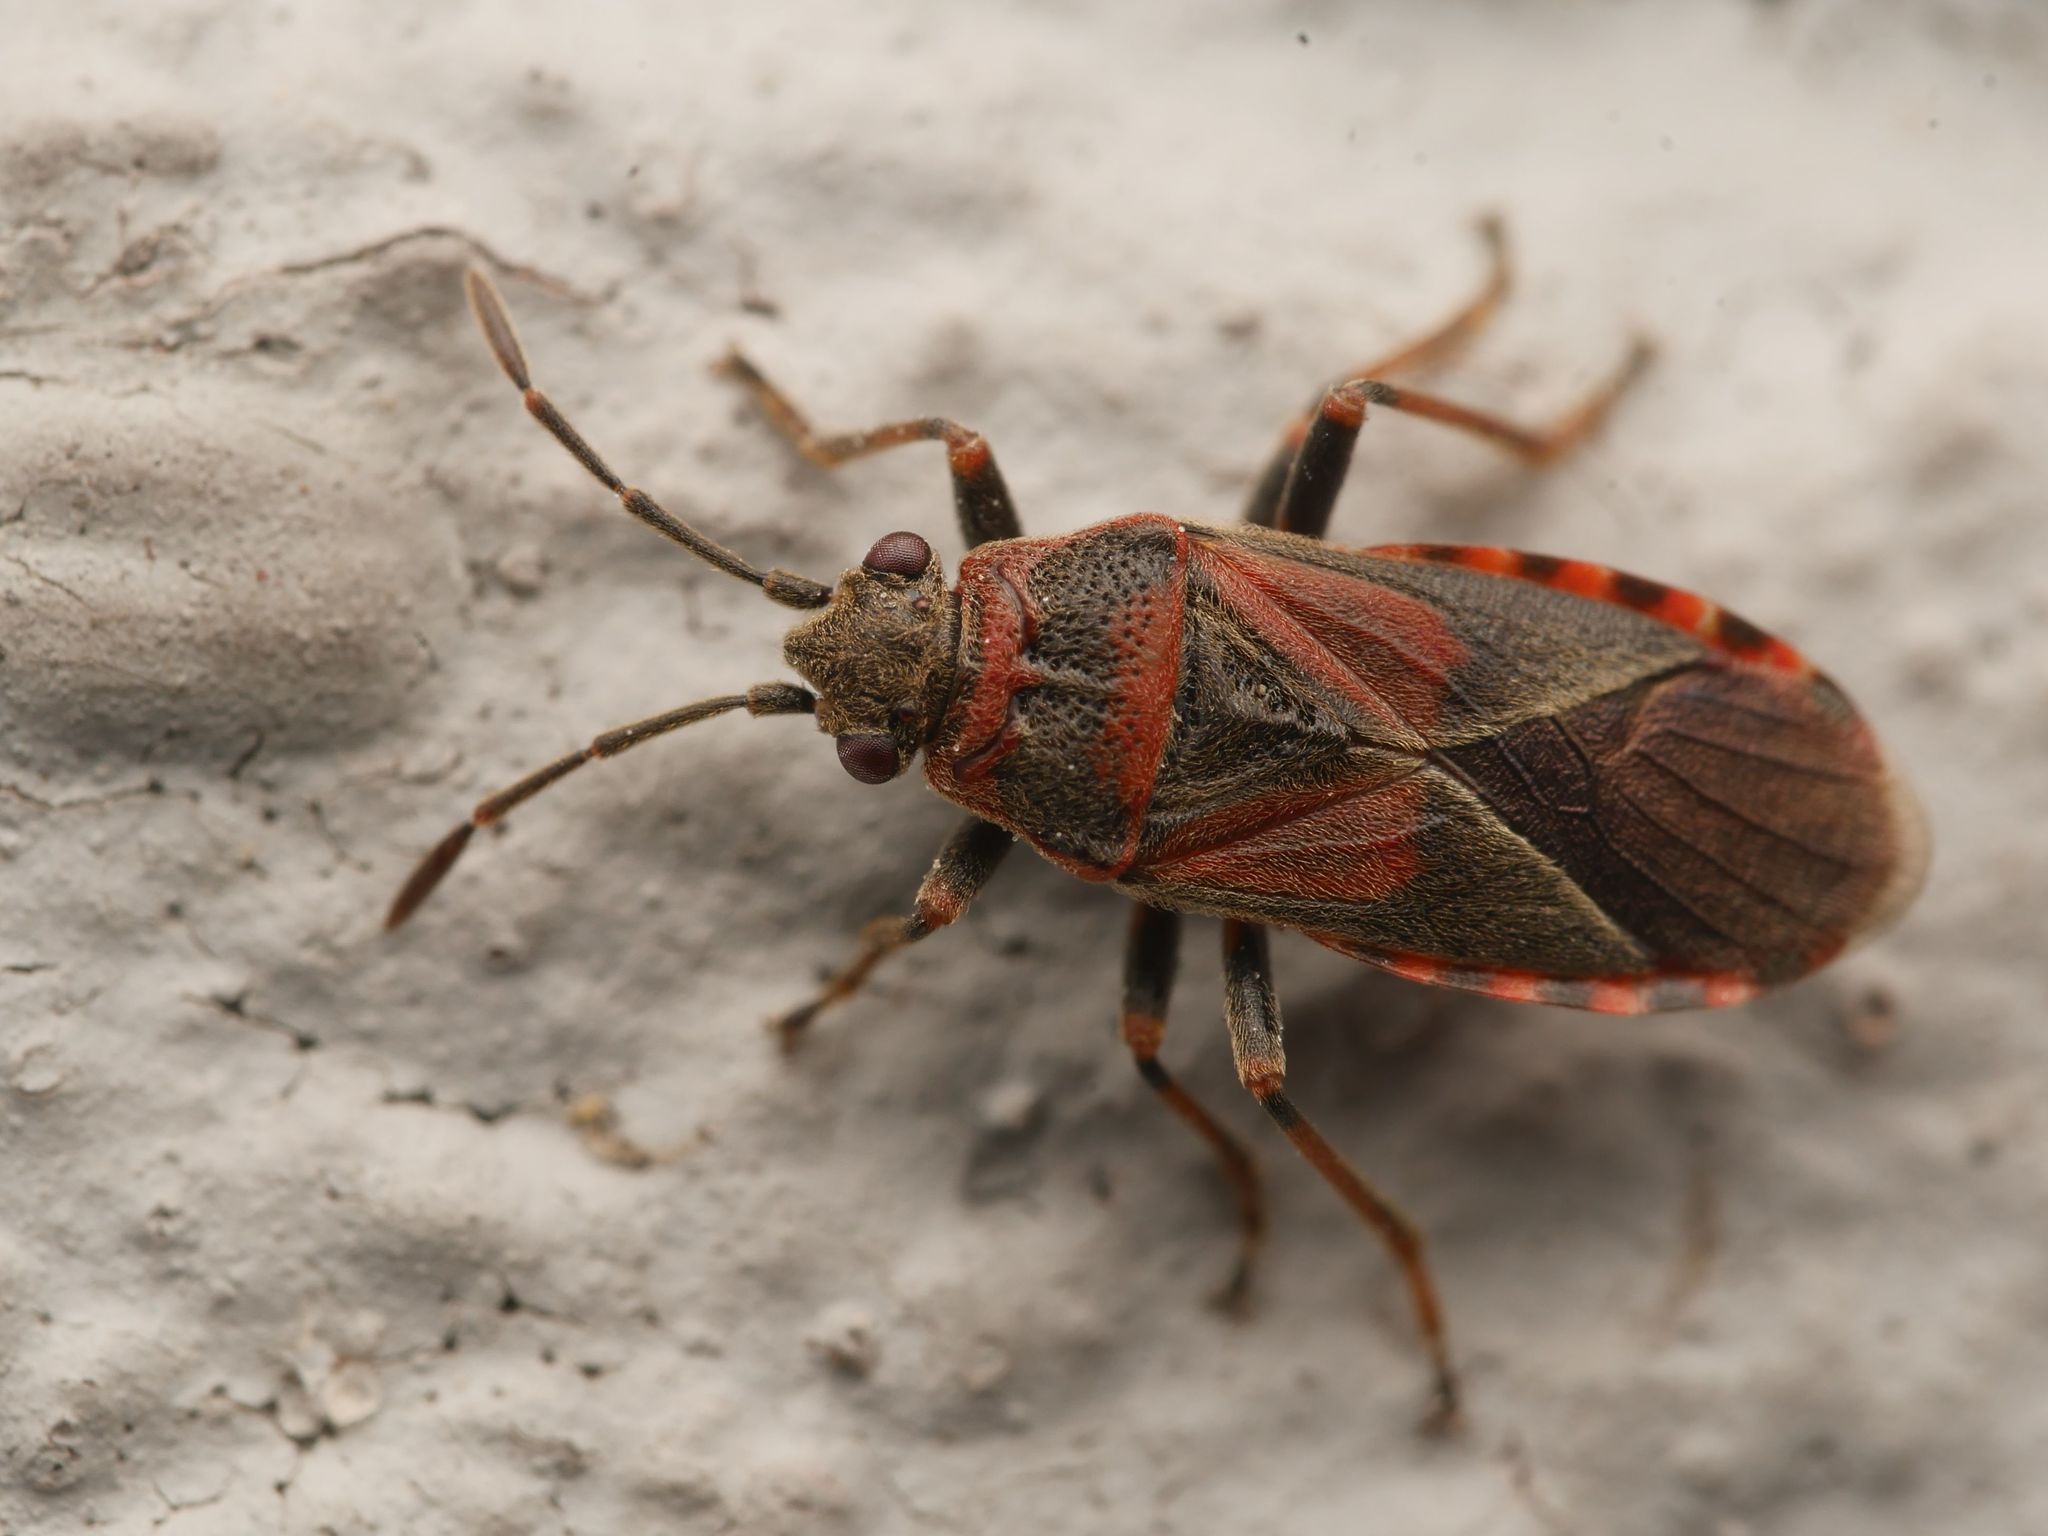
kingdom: Animalia
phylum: Arthropoda
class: Insecta
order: Hemiptera
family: Lygaeidae
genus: Arocatus
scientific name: Arocatus melanocephalus
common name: Lygaeid bug
